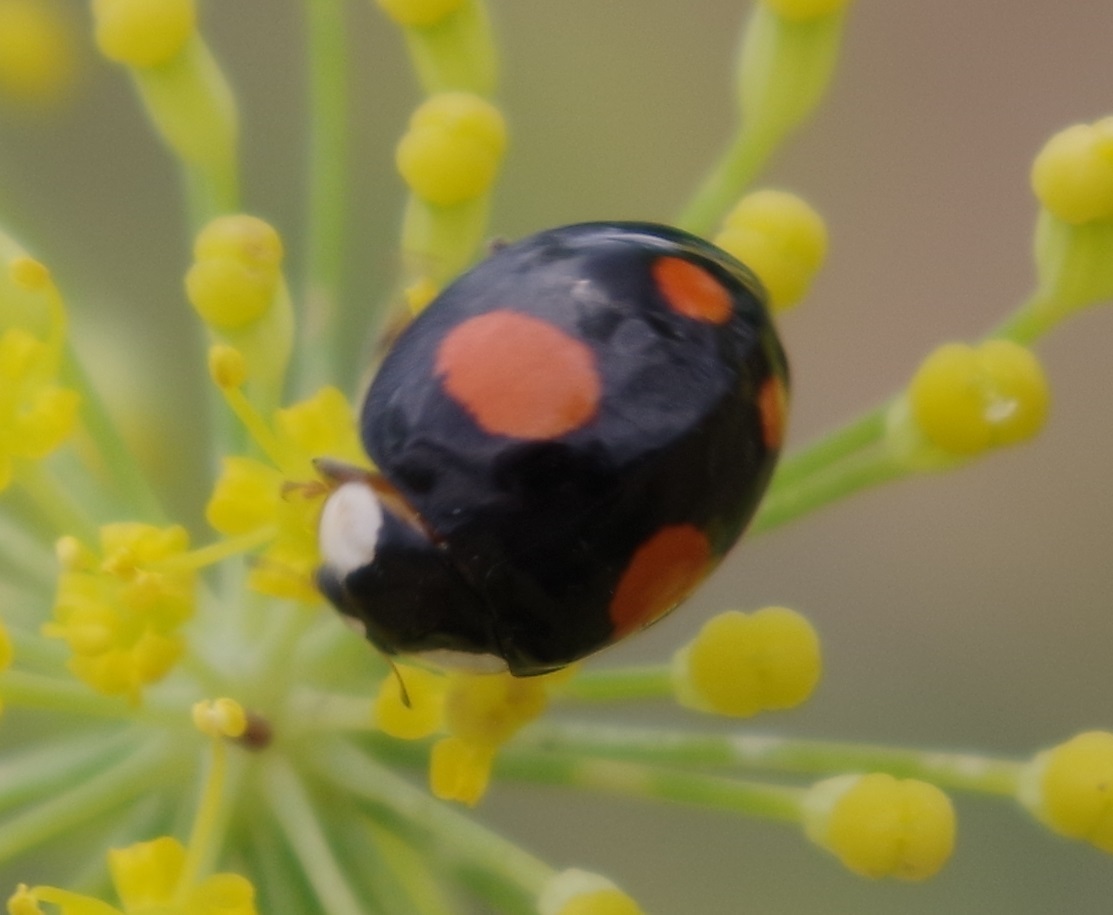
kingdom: Animalia
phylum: Arthropoda
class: Insecta
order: Coleoptera
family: Coccinellidae
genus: Harmonia
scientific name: Harmonia axyridis
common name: Harlequin ladybird
